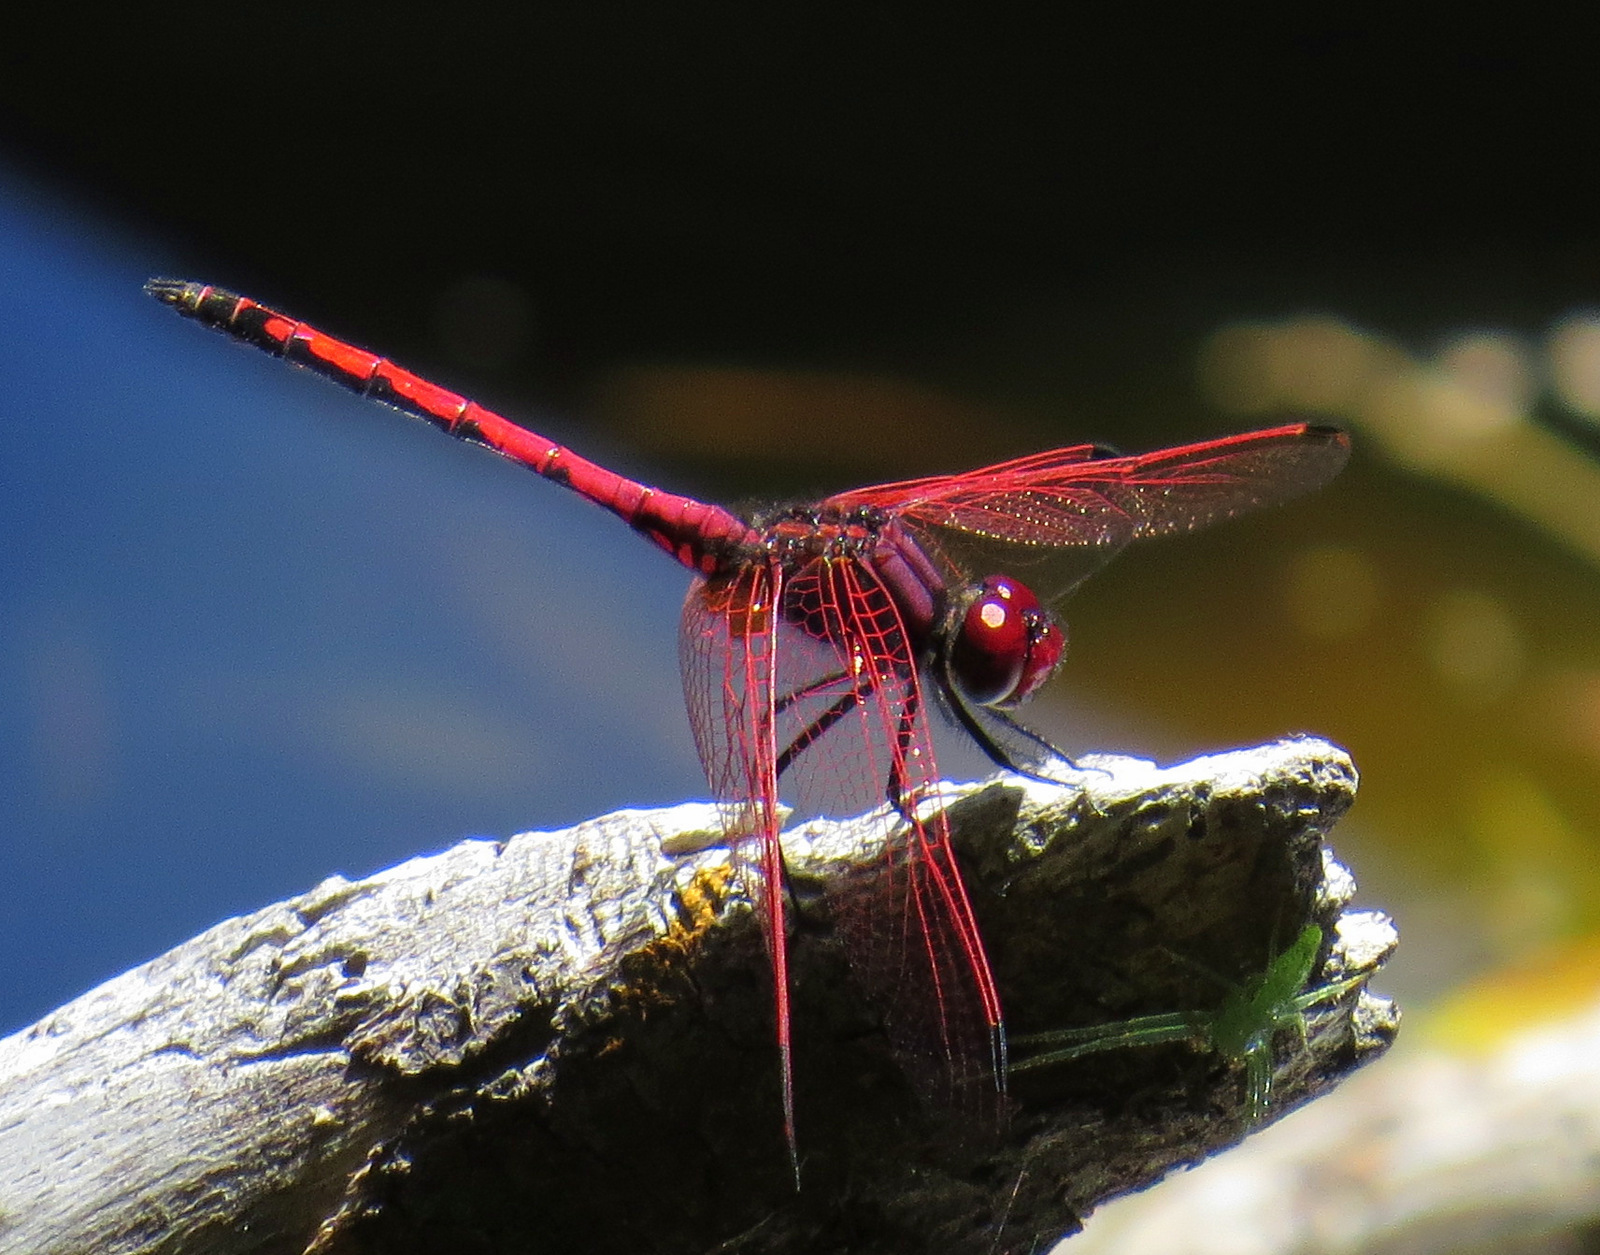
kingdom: Animalia
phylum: Arthropoda
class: Insecta
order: Odonata
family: Libellulidae
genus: Trithemis
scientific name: Trithemis arteriosa
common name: Red-veined dropwing
